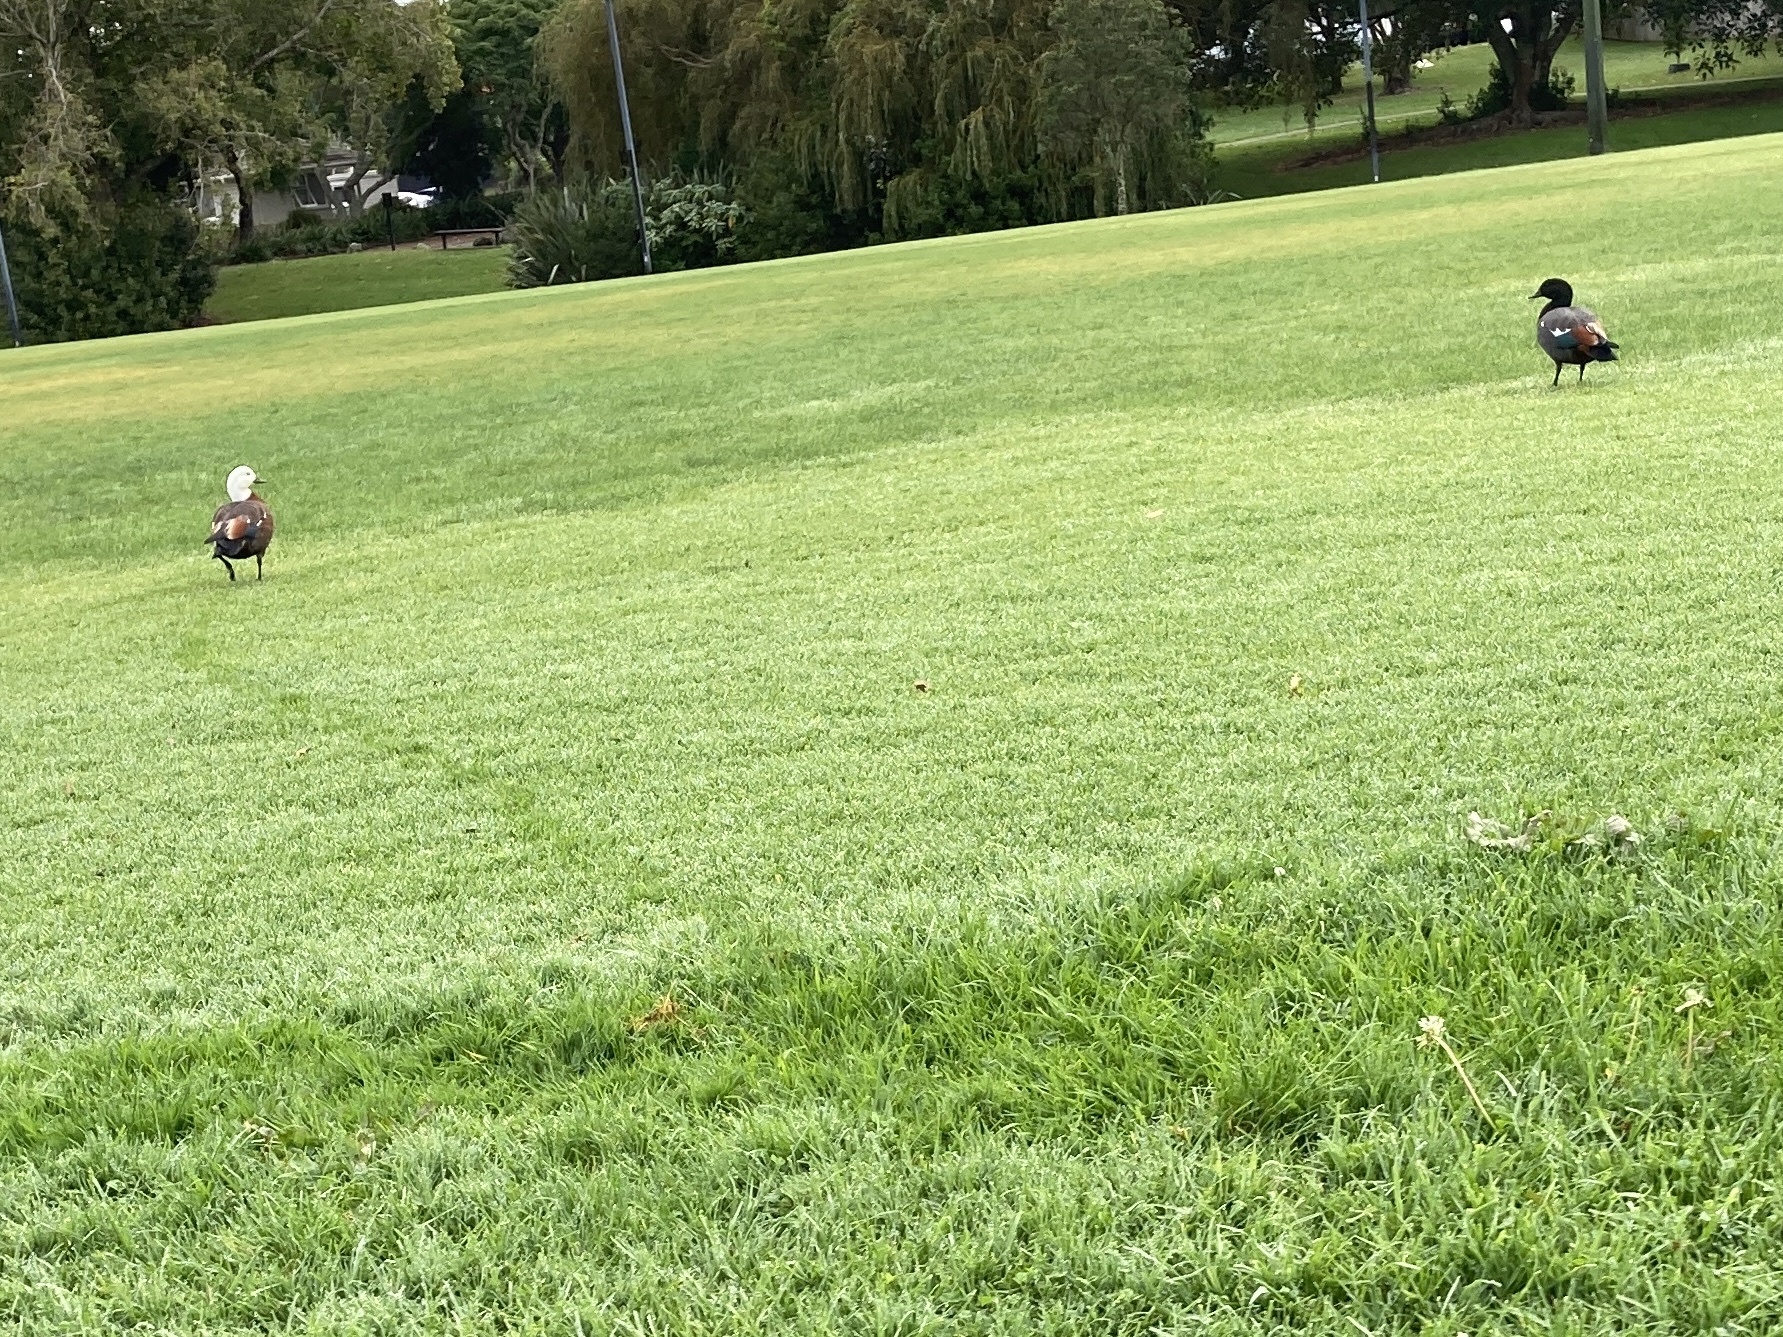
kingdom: Animalia
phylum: Chordata
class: Aves
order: Anseriformes
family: Anatidae
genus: Tadorna
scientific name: Tadorna variegata
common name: Paradise shelduck
